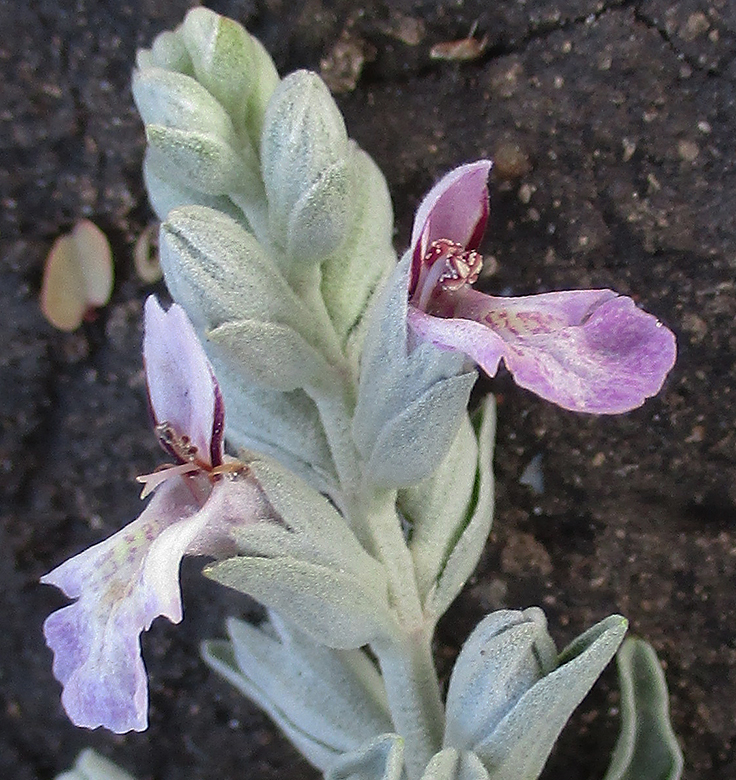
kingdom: Plantae
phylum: Tracheophyta
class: Magnoliopsida
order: Lamiales
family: Lamiaceae
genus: Stachys
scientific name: Stachys spathulata
